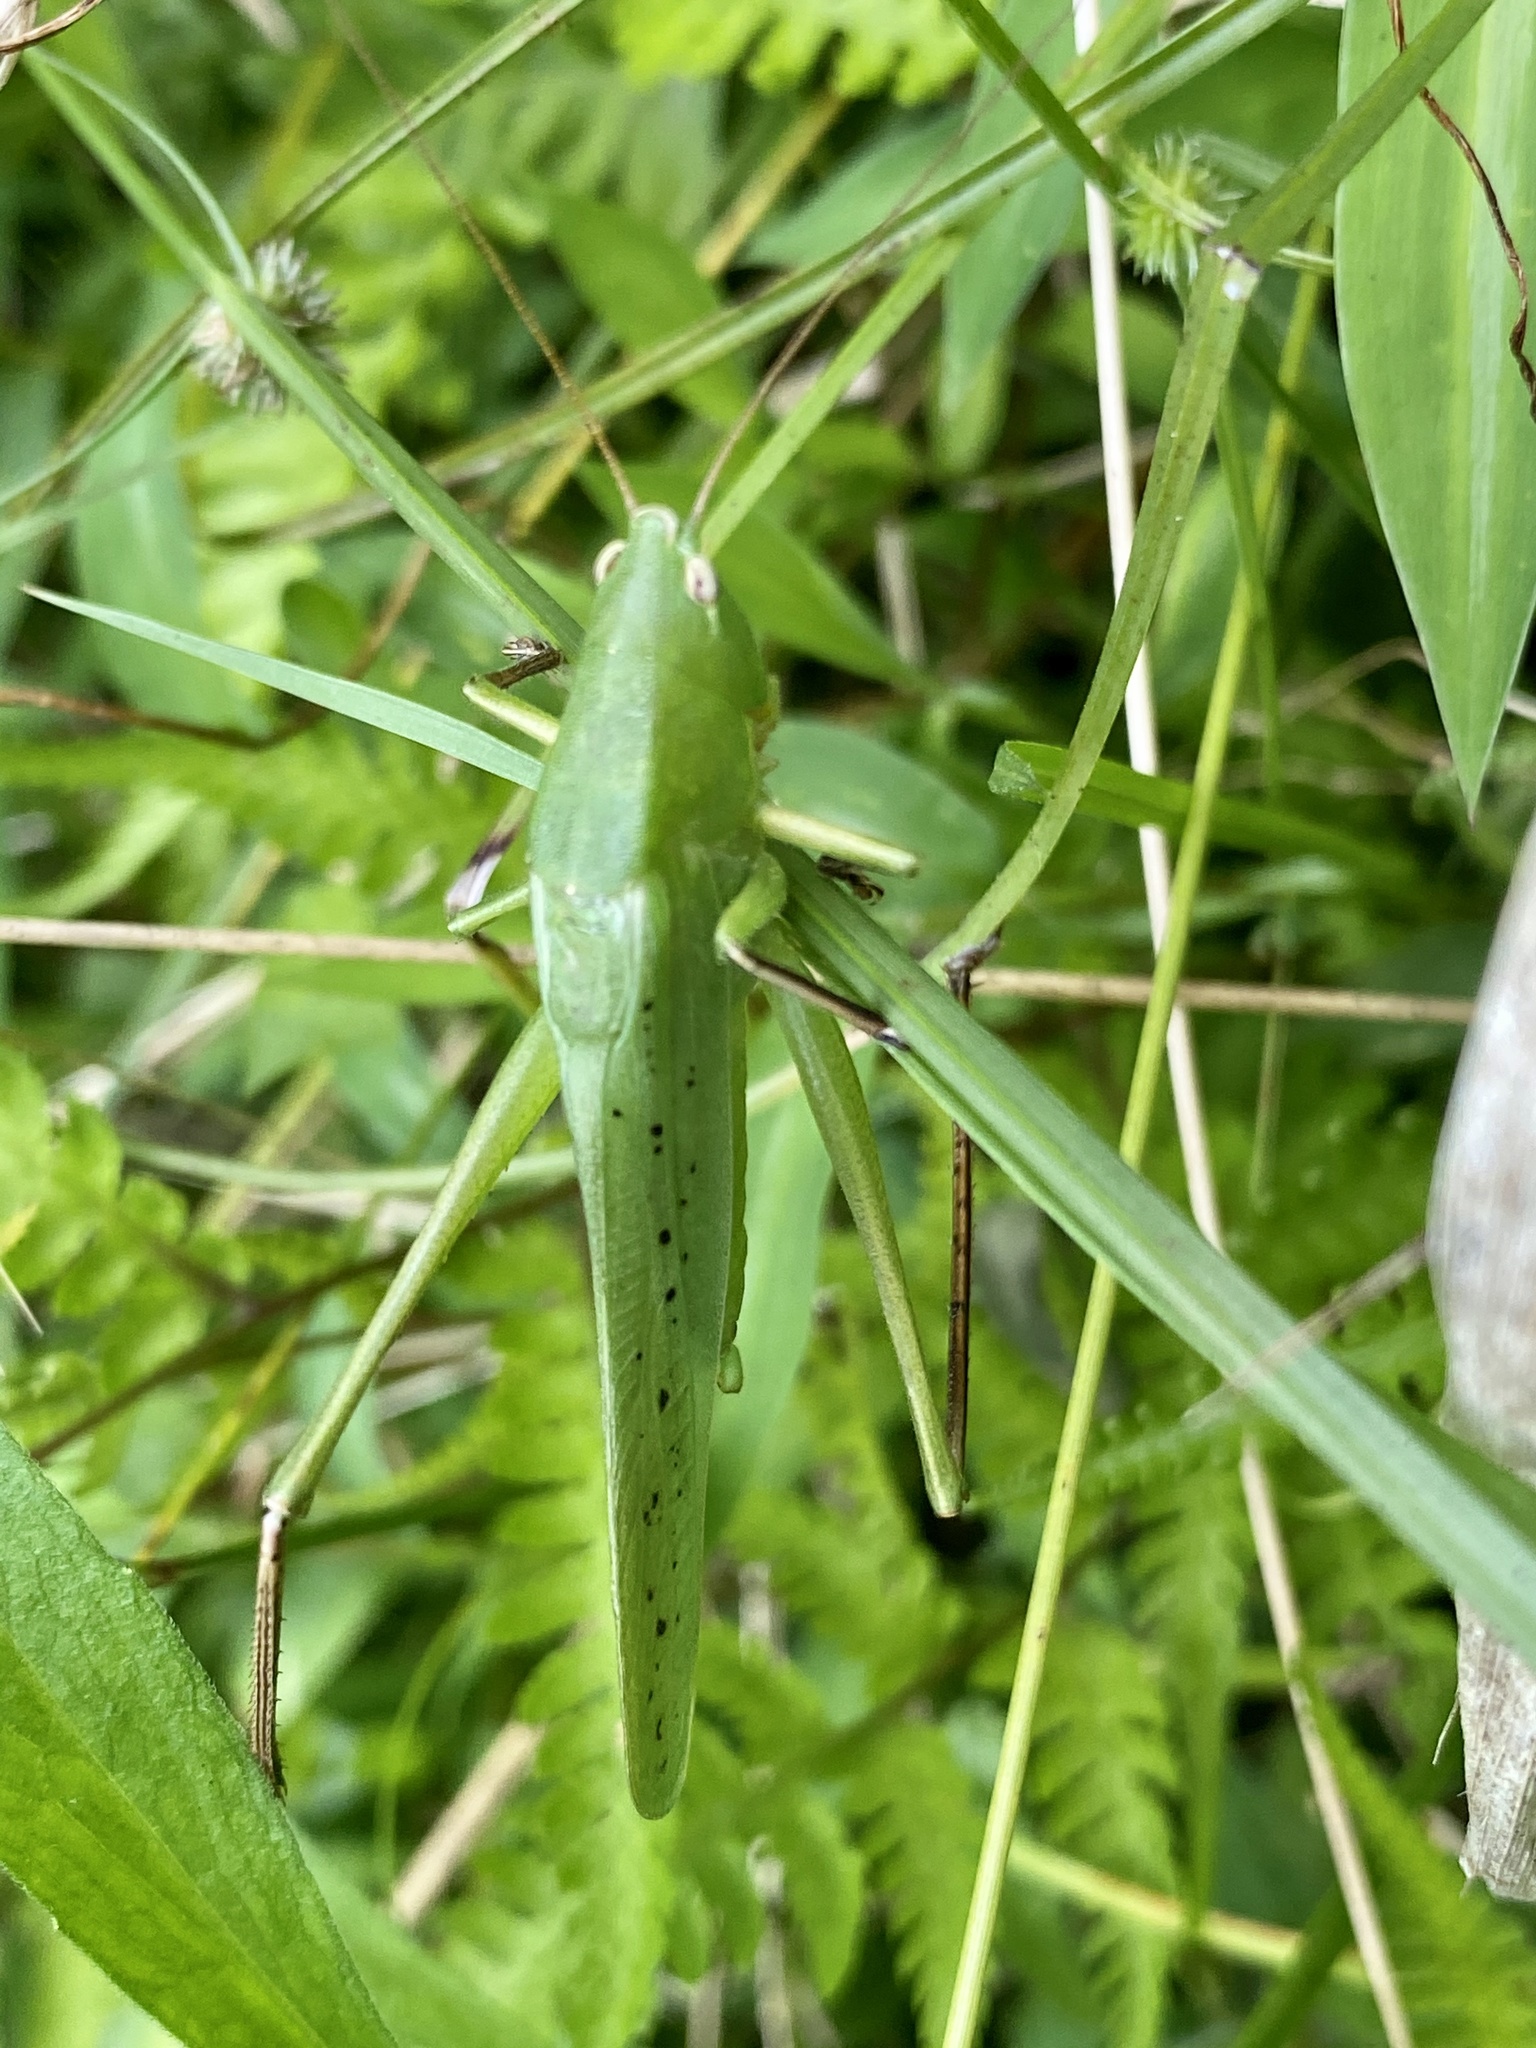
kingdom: Animalia
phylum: Arthropoda
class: Insecta
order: Orthoptera
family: Tettigoniidae
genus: Ruspolia
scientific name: Ruspolia lineosa
